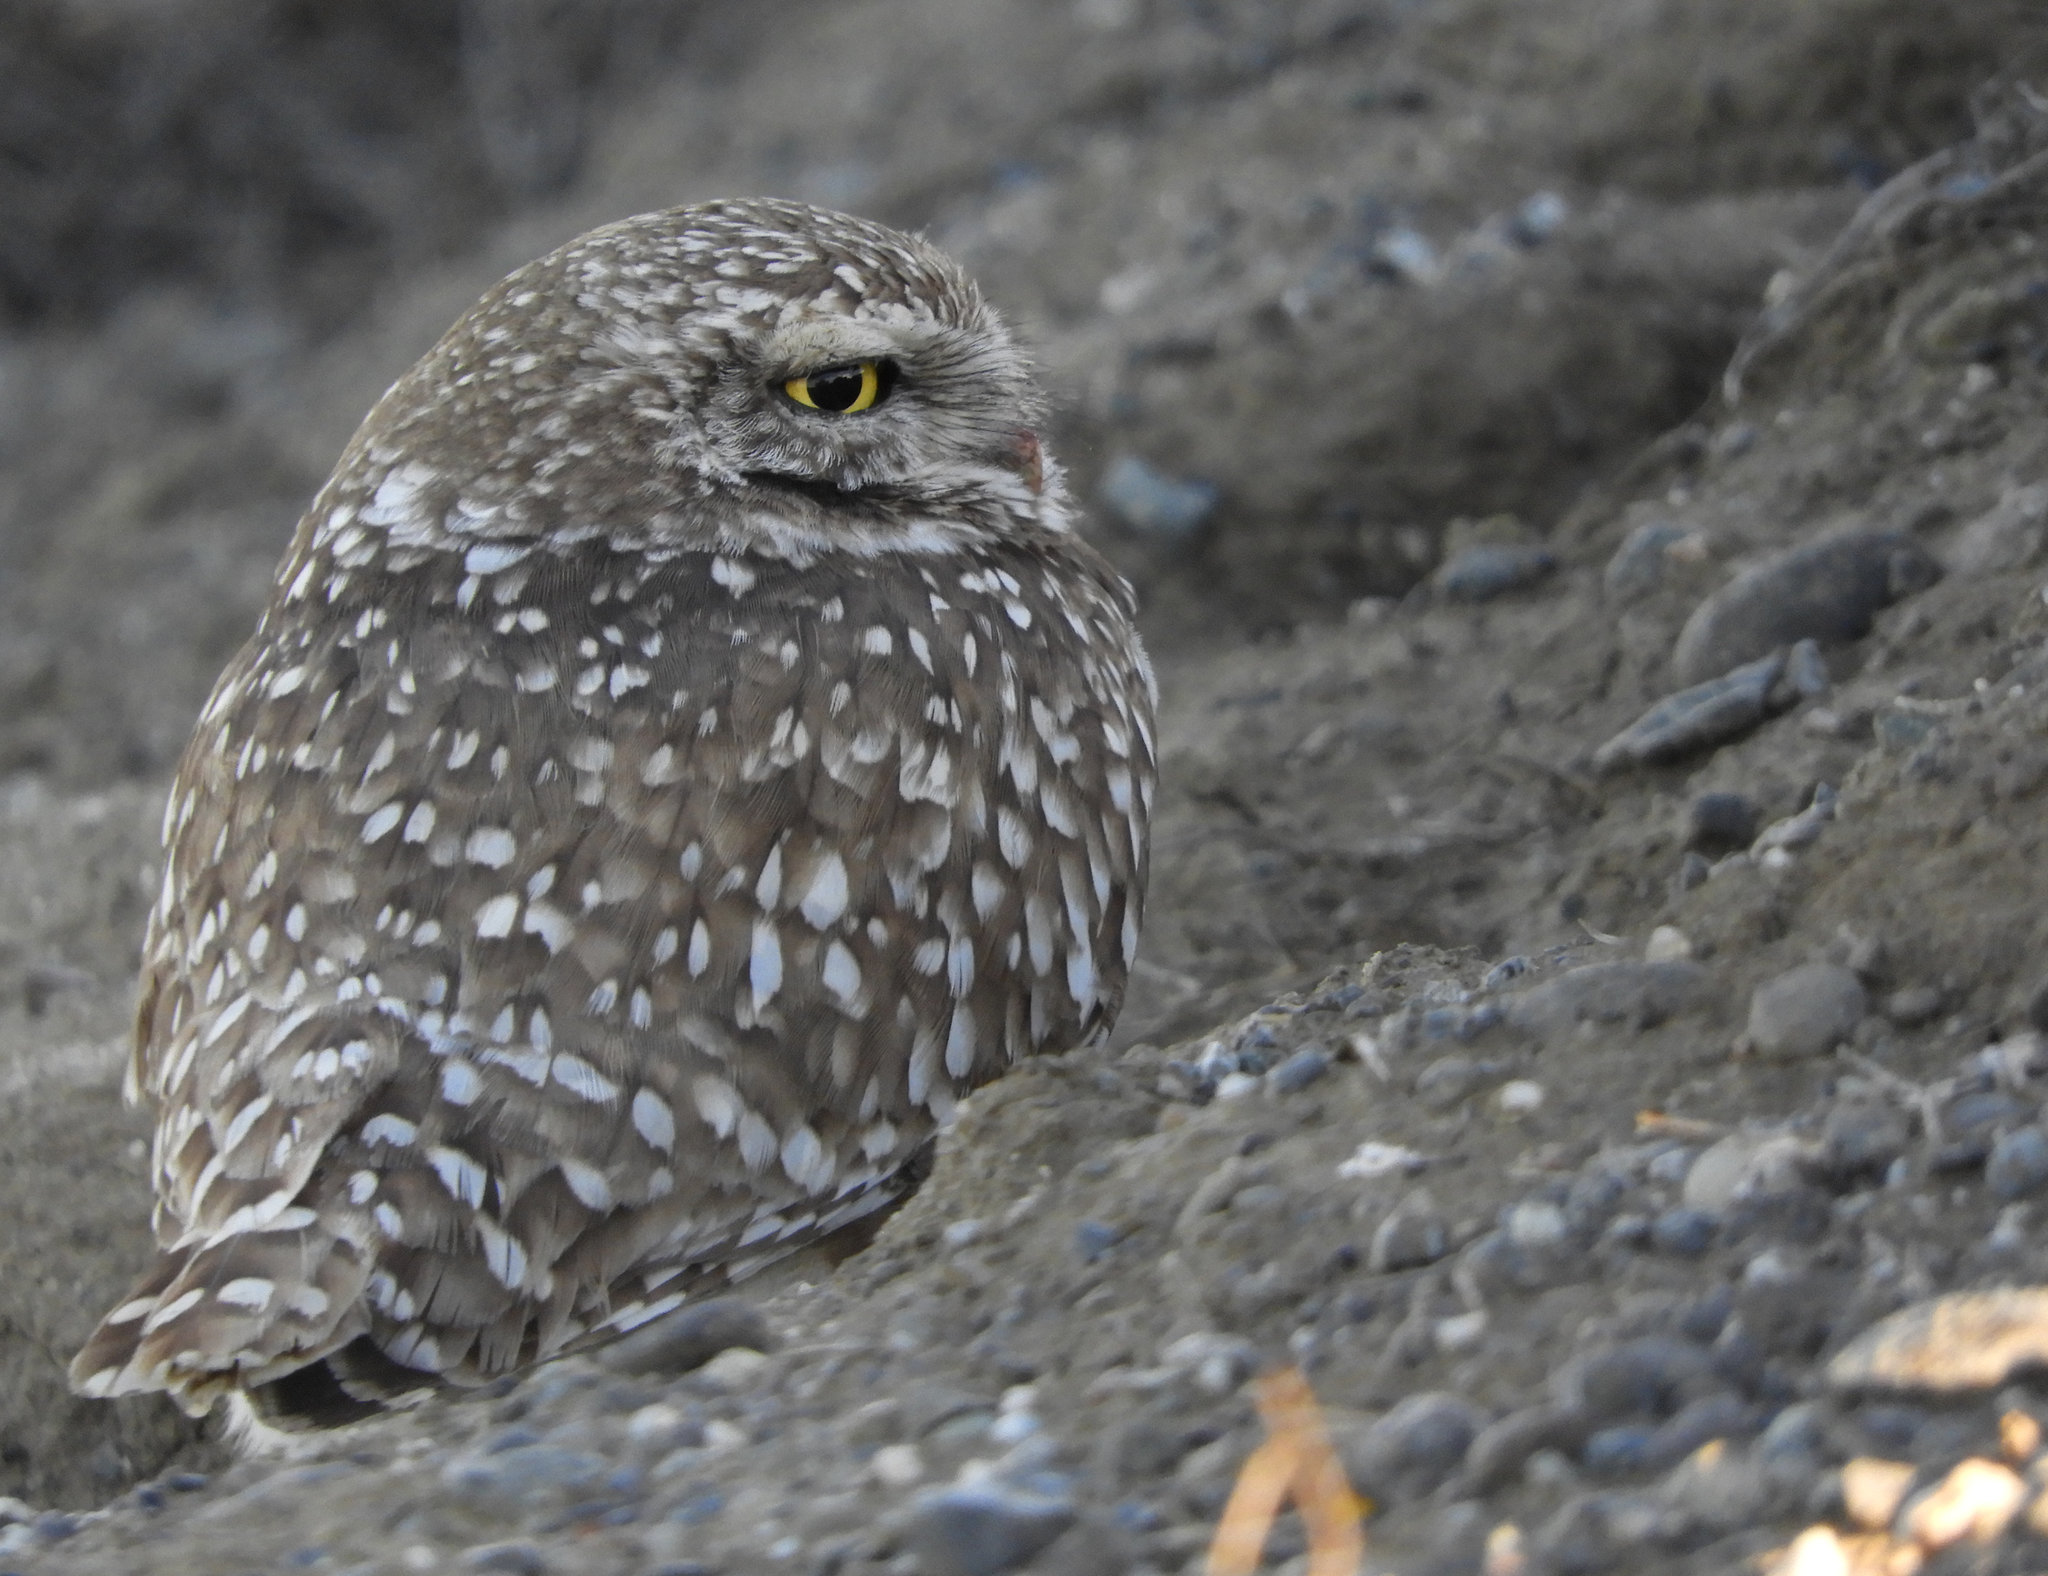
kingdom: Animalia
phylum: Chordata
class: Aves
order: Strigiformes
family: Strigidae
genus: Athene
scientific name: Athene cunicularia
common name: Burrowing owl
